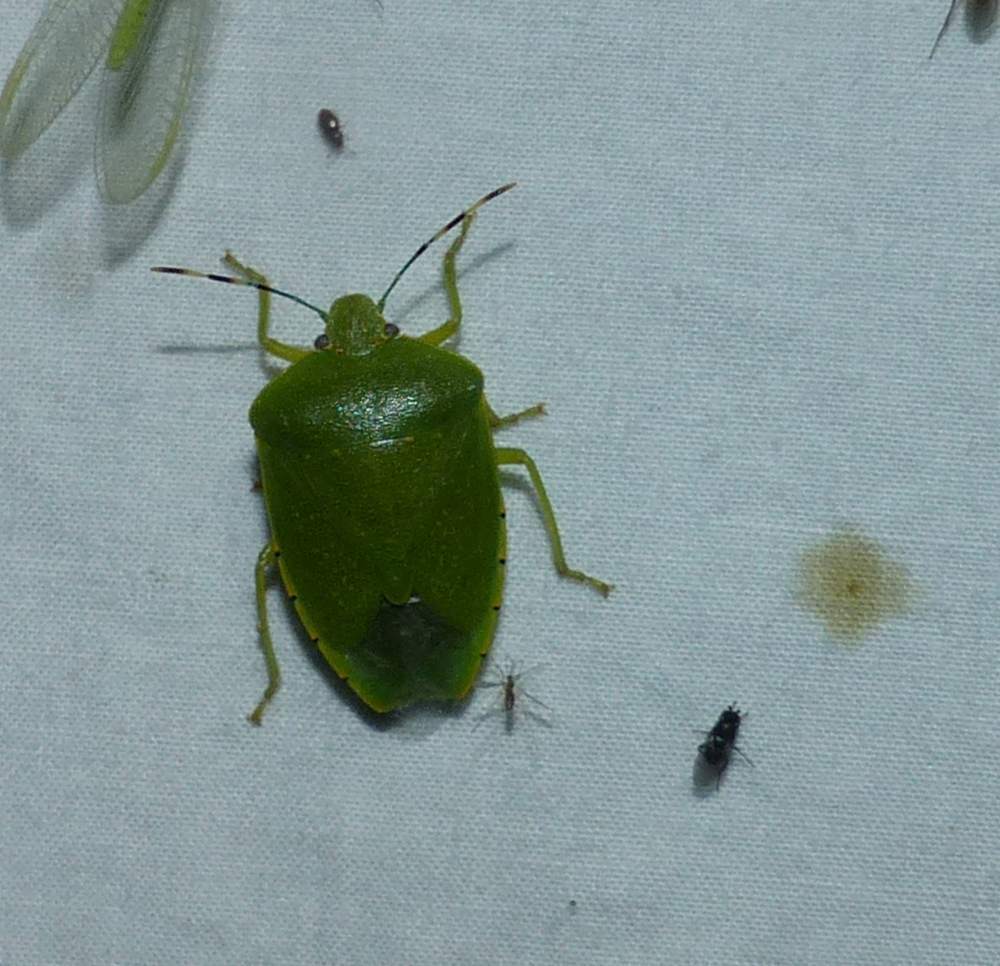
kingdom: Animalia
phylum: Arthropoda
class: Insecta
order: Hemiptera
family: Pentatomidae
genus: Chinavia
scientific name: Chinavia hilaris
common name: Green stink bug
